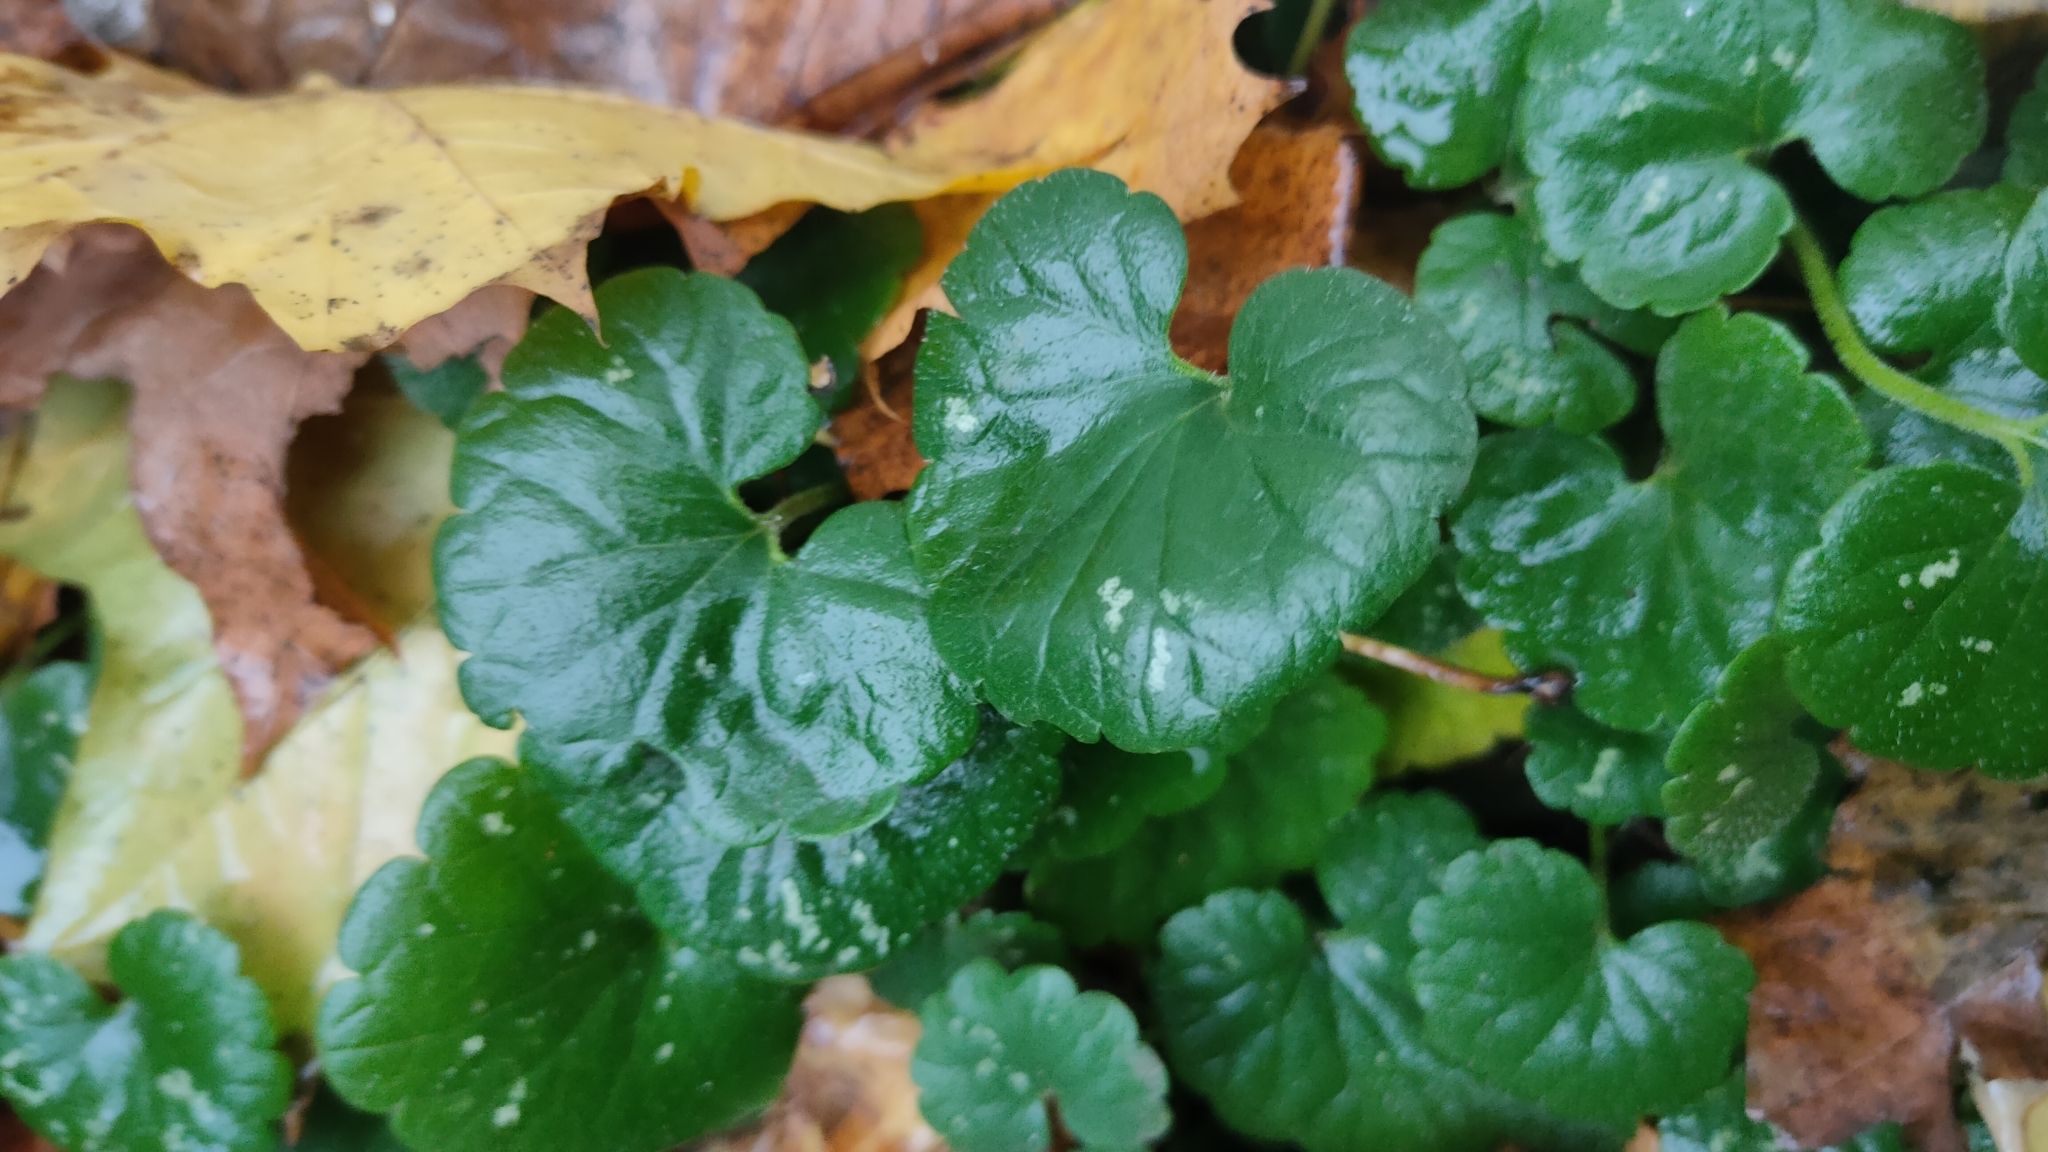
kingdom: Plantae
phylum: Tracheophyta
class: Magnoliopsida
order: Lamiales
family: Lamiaceae
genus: Glechoma
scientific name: Glechoma hederacea
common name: Ground ivy
